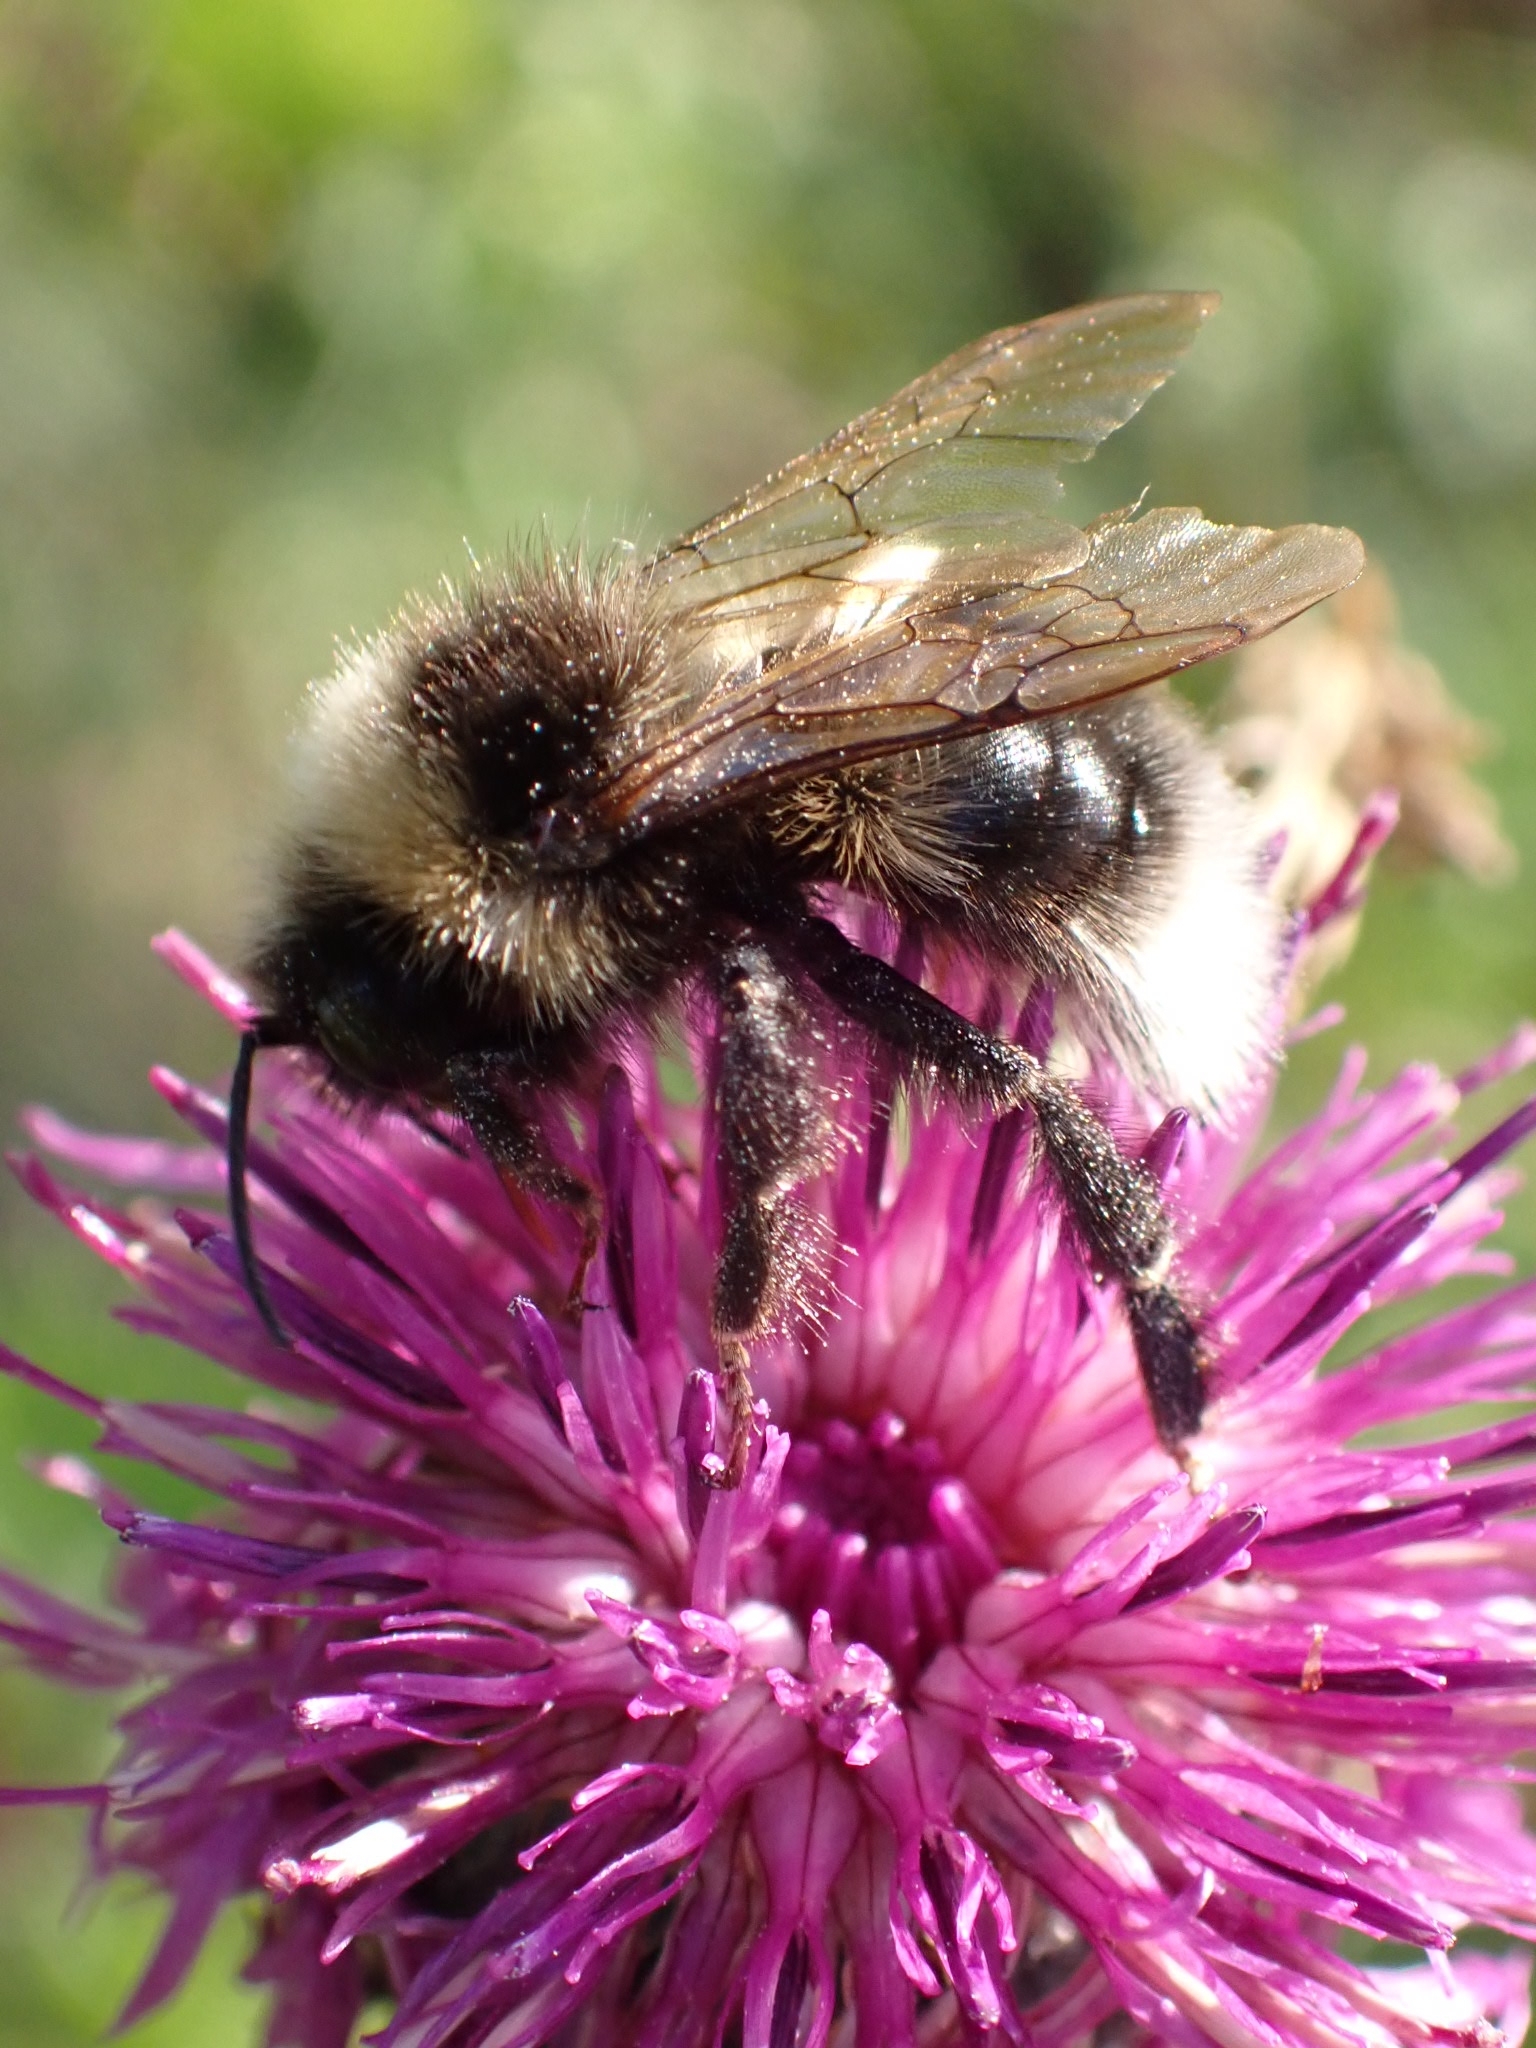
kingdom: Animalia
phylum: Arthropoda
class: Insecta
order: Hymenoptera
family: Apidae
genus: Bombus
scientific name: Bombus bohemicus
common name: Gypsy cuckoo bee
